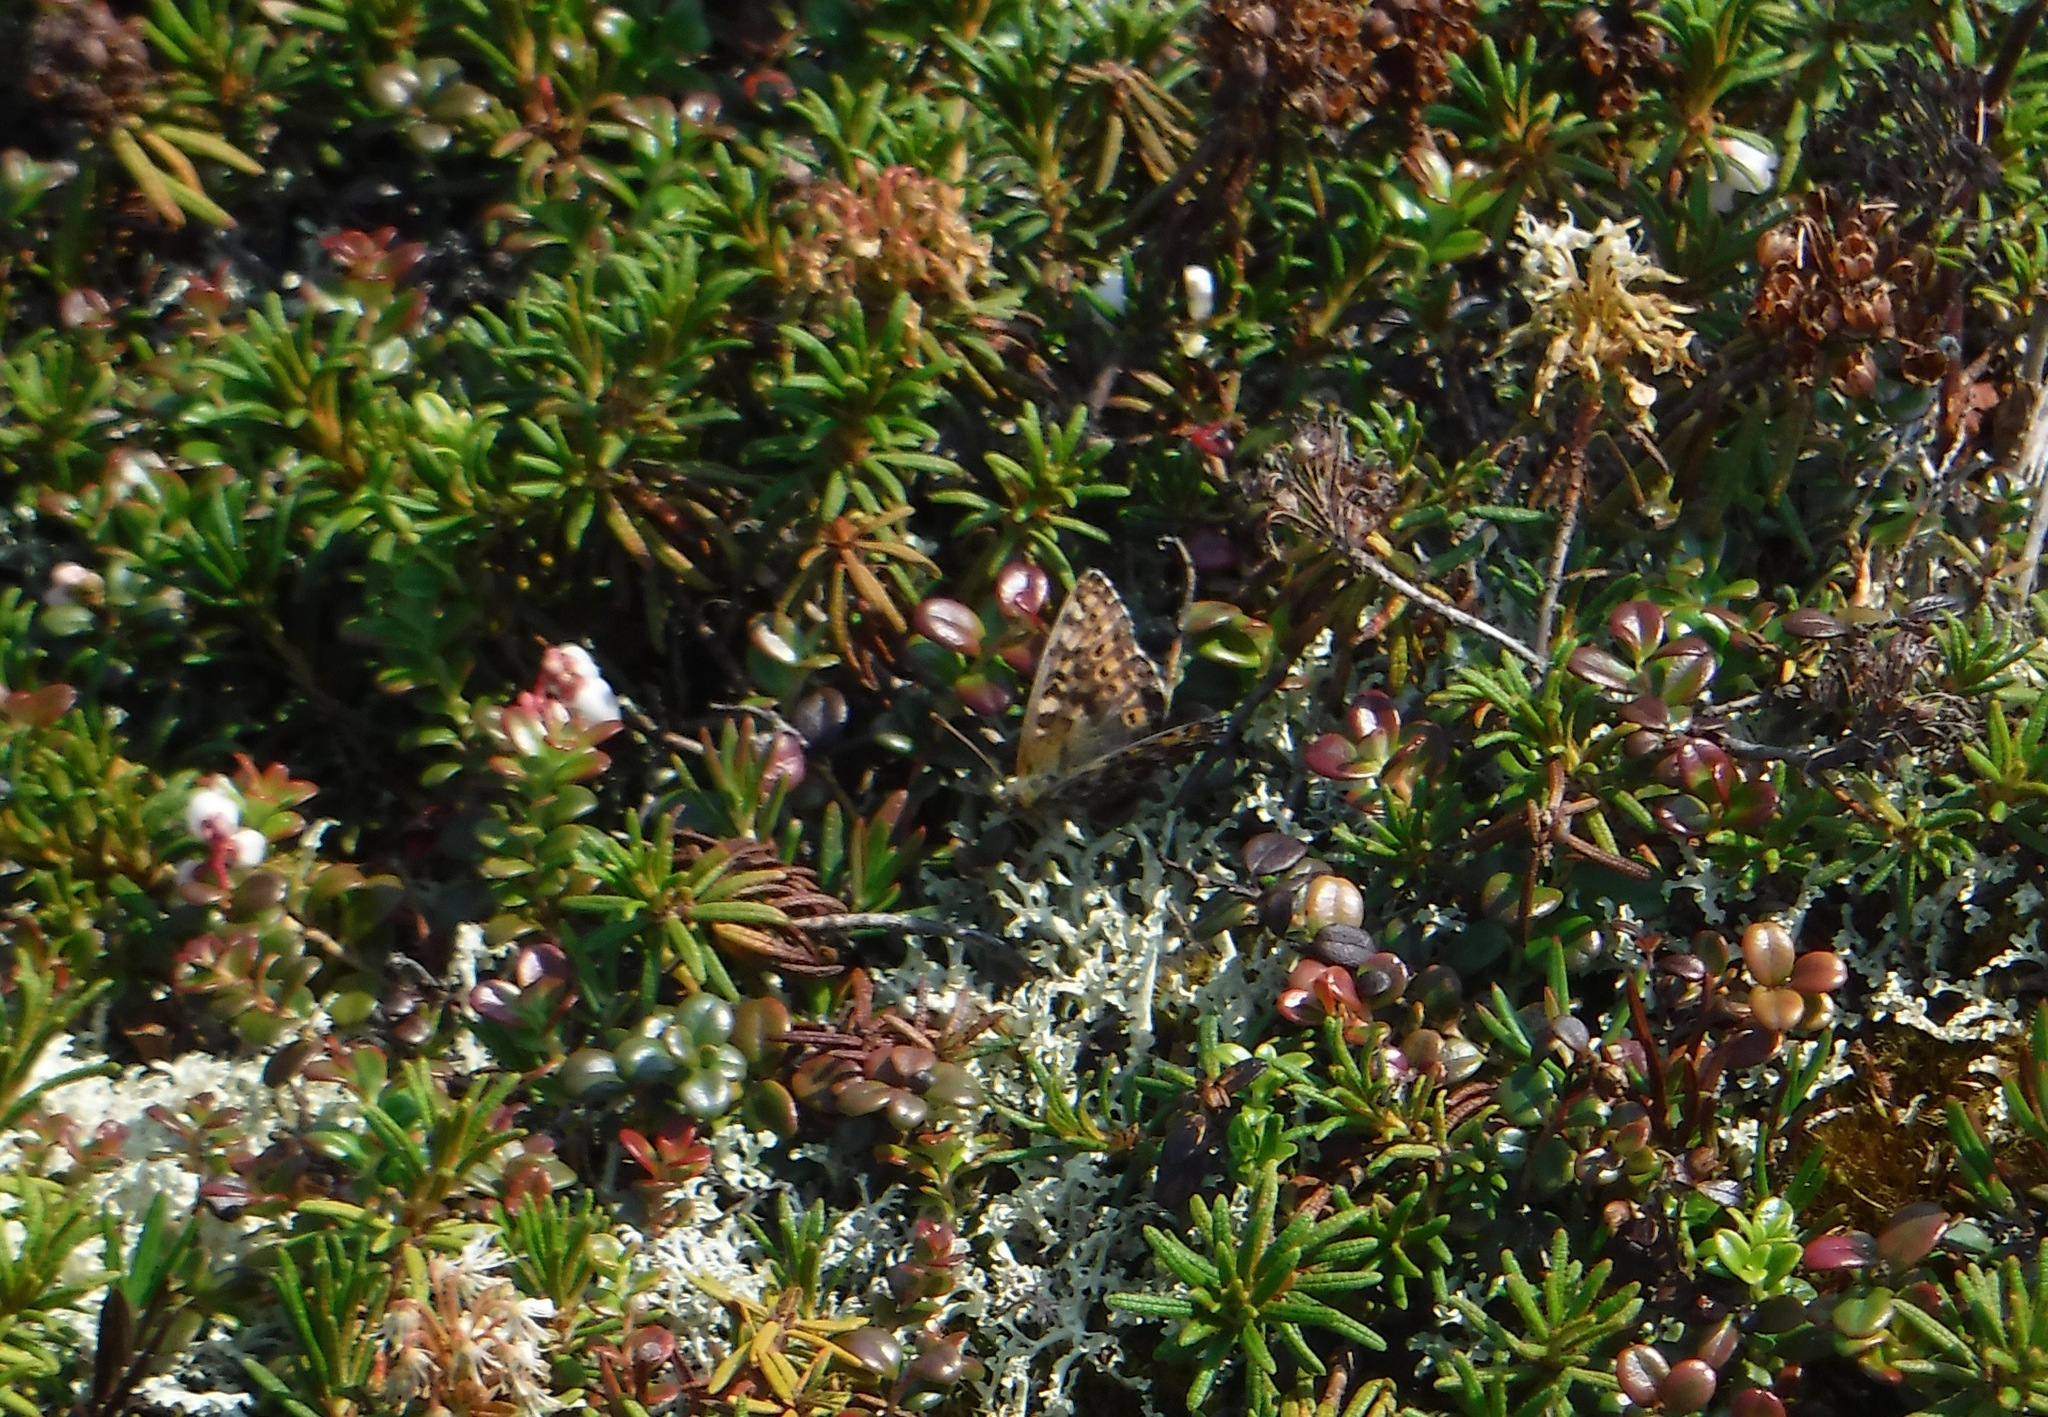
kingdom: Animalia
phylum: Arthropoda
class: Insecta
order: Lepidoptera
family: Nymphalidae
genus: Clossiana
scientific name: Clossiana polaris
